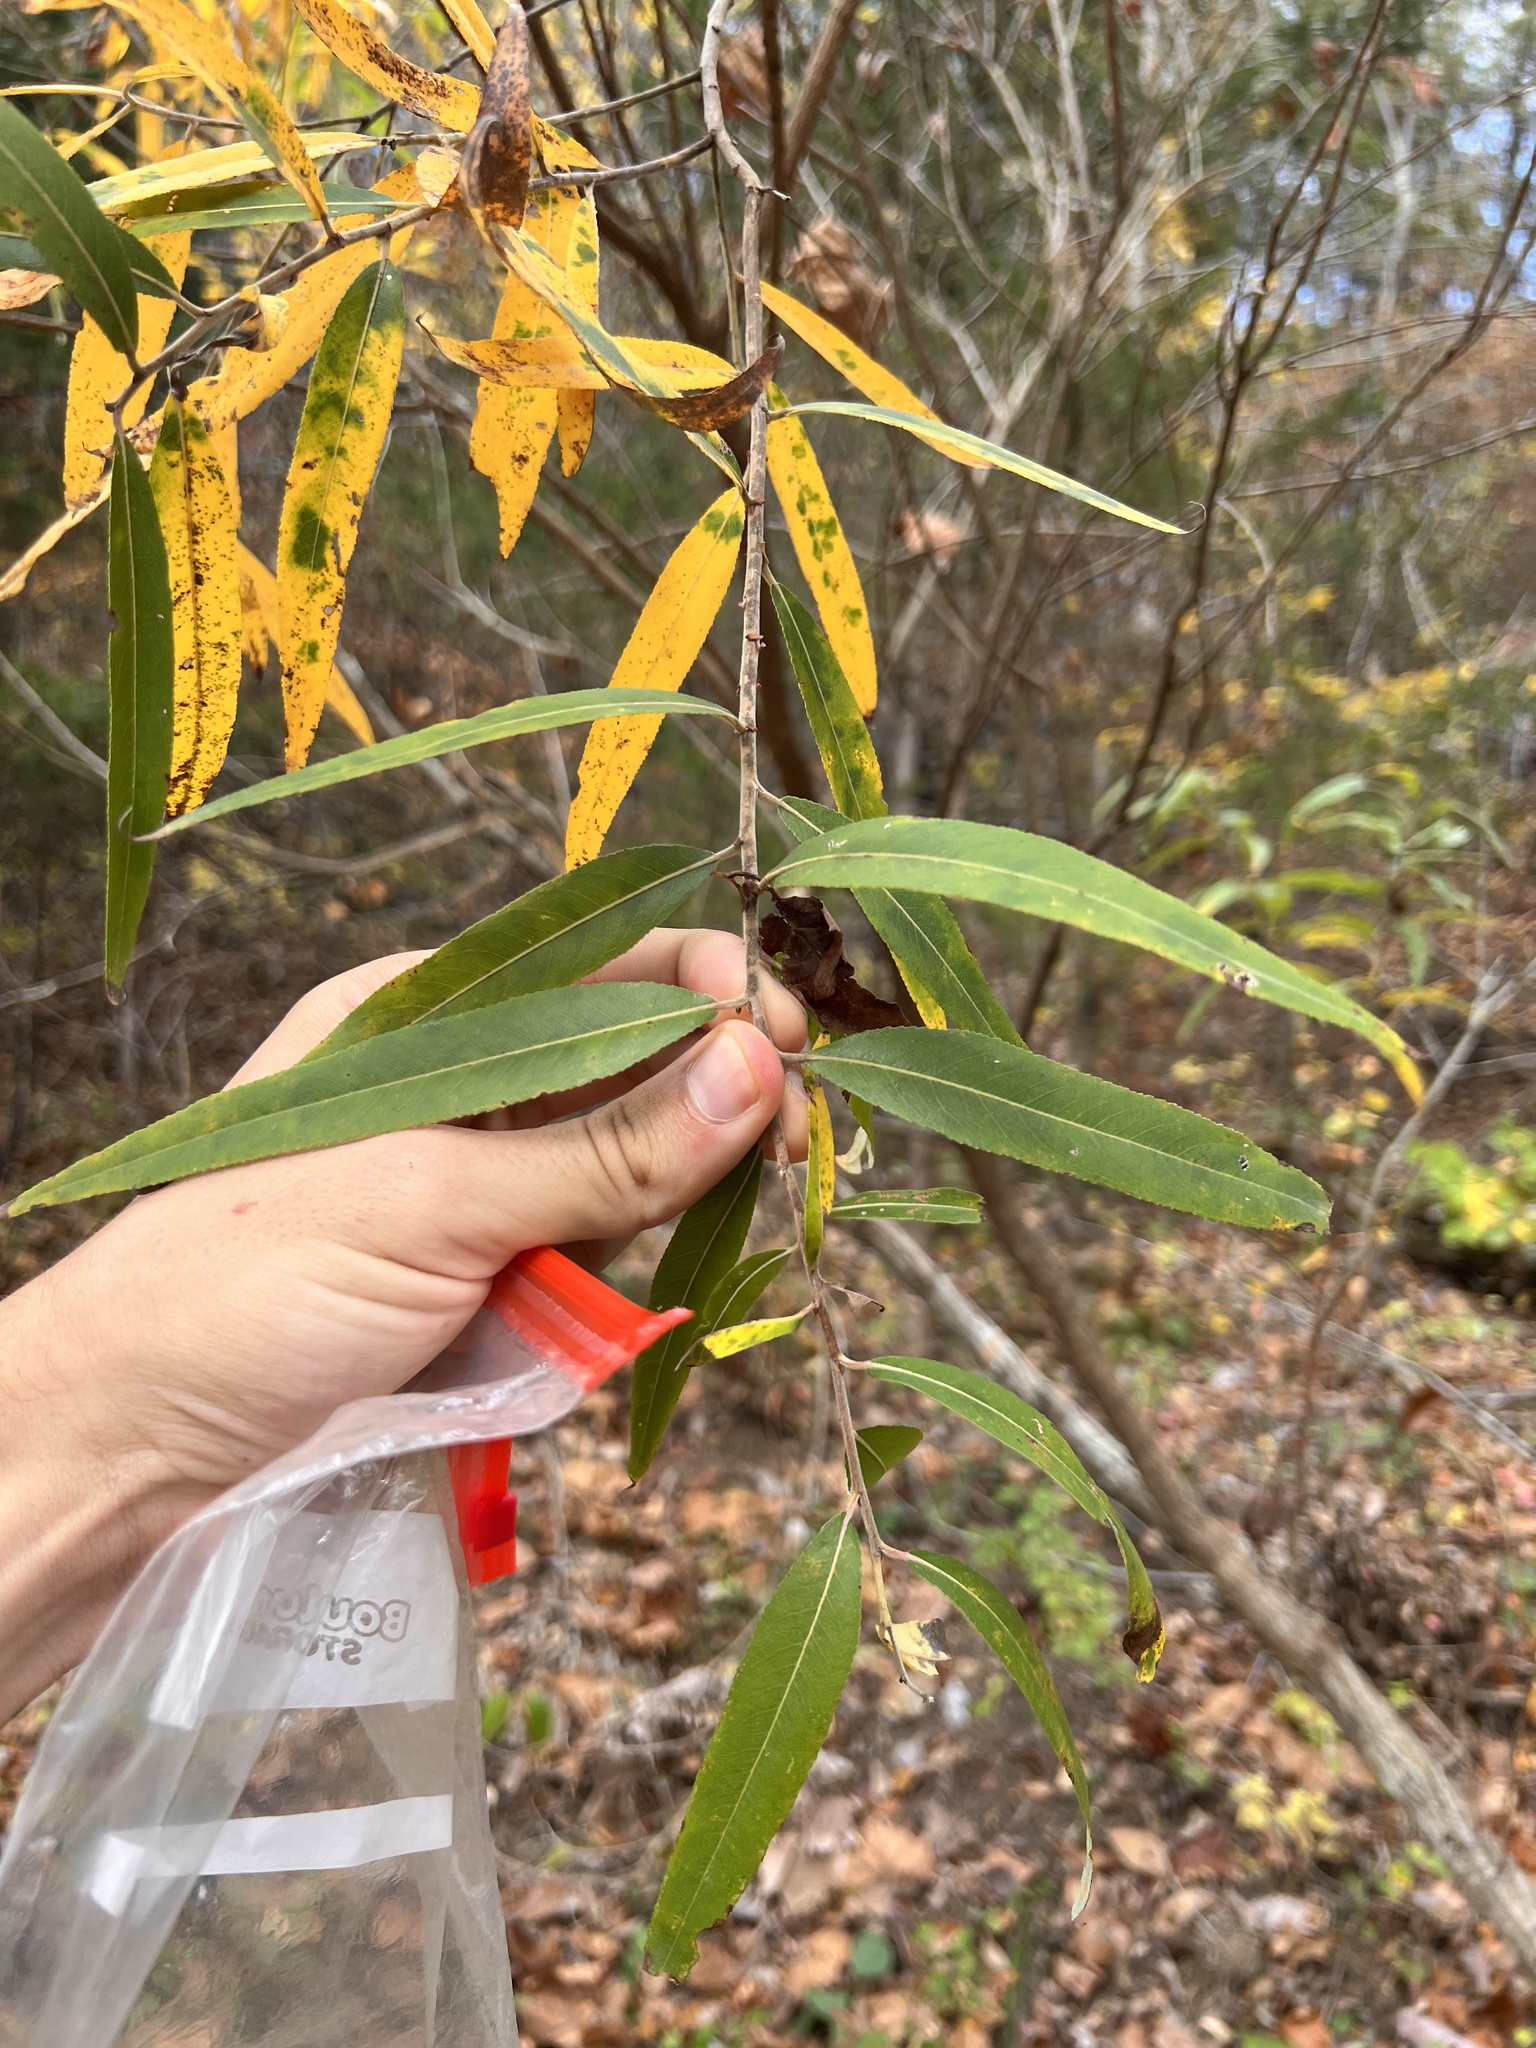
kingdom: Plantae
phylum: Tracheophyta
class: Magnoliopsida
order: Malpighiales
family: Salicaceae
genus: Salix
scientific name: Salix interior
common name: Sandbar willow
